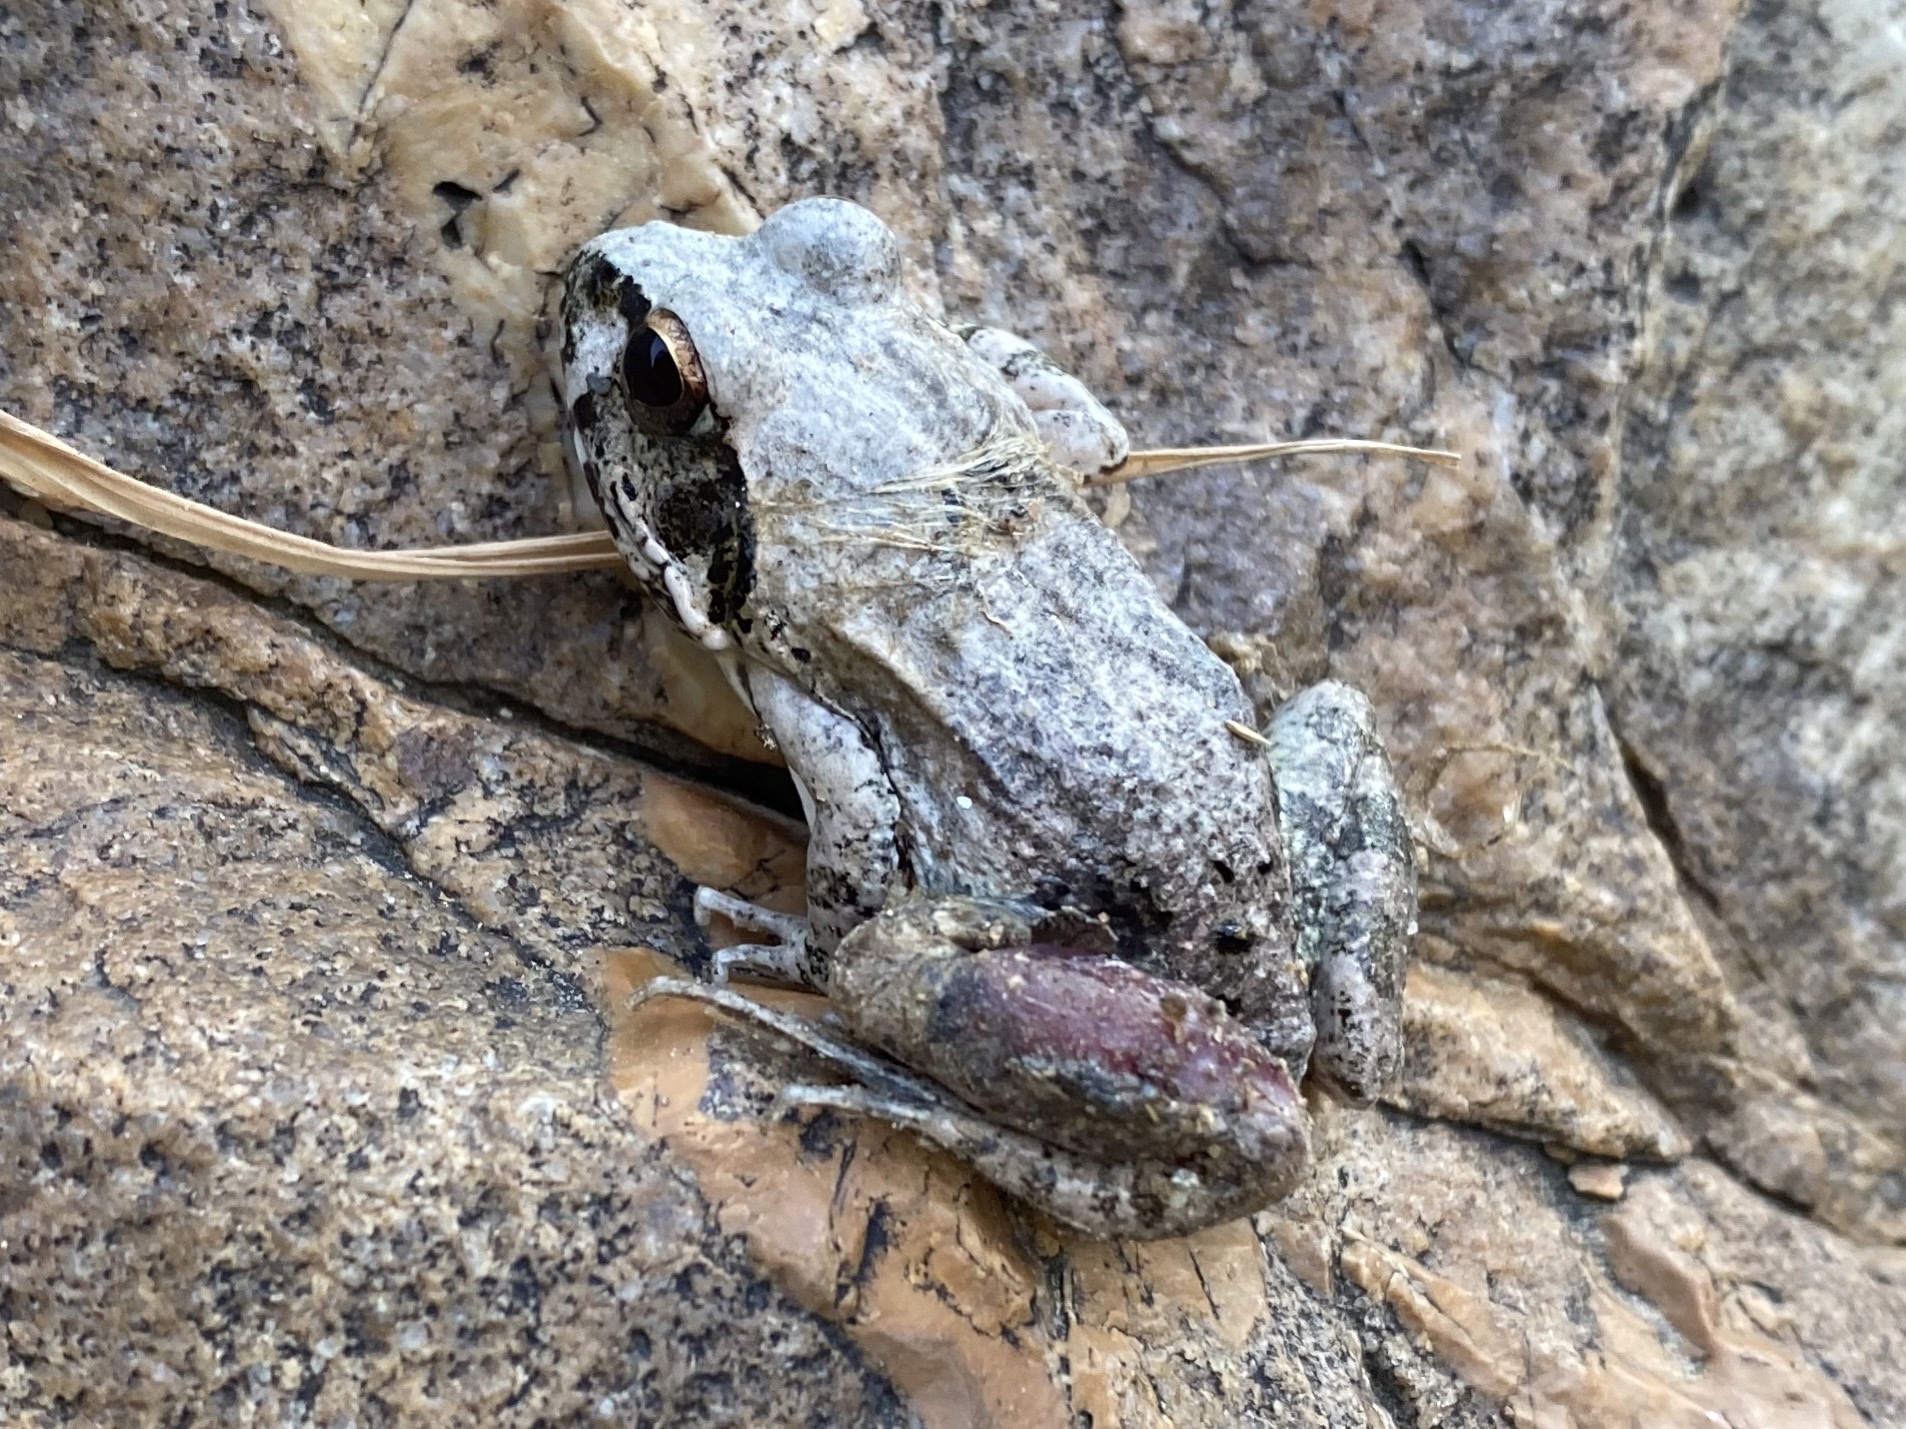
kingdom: Animalia
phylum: Chordata
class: Amphibia
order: Anura
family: Arthroleptidae
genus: Arthroleptis
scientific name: Arthroleptis stenodactylus
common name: Dune squeaker
